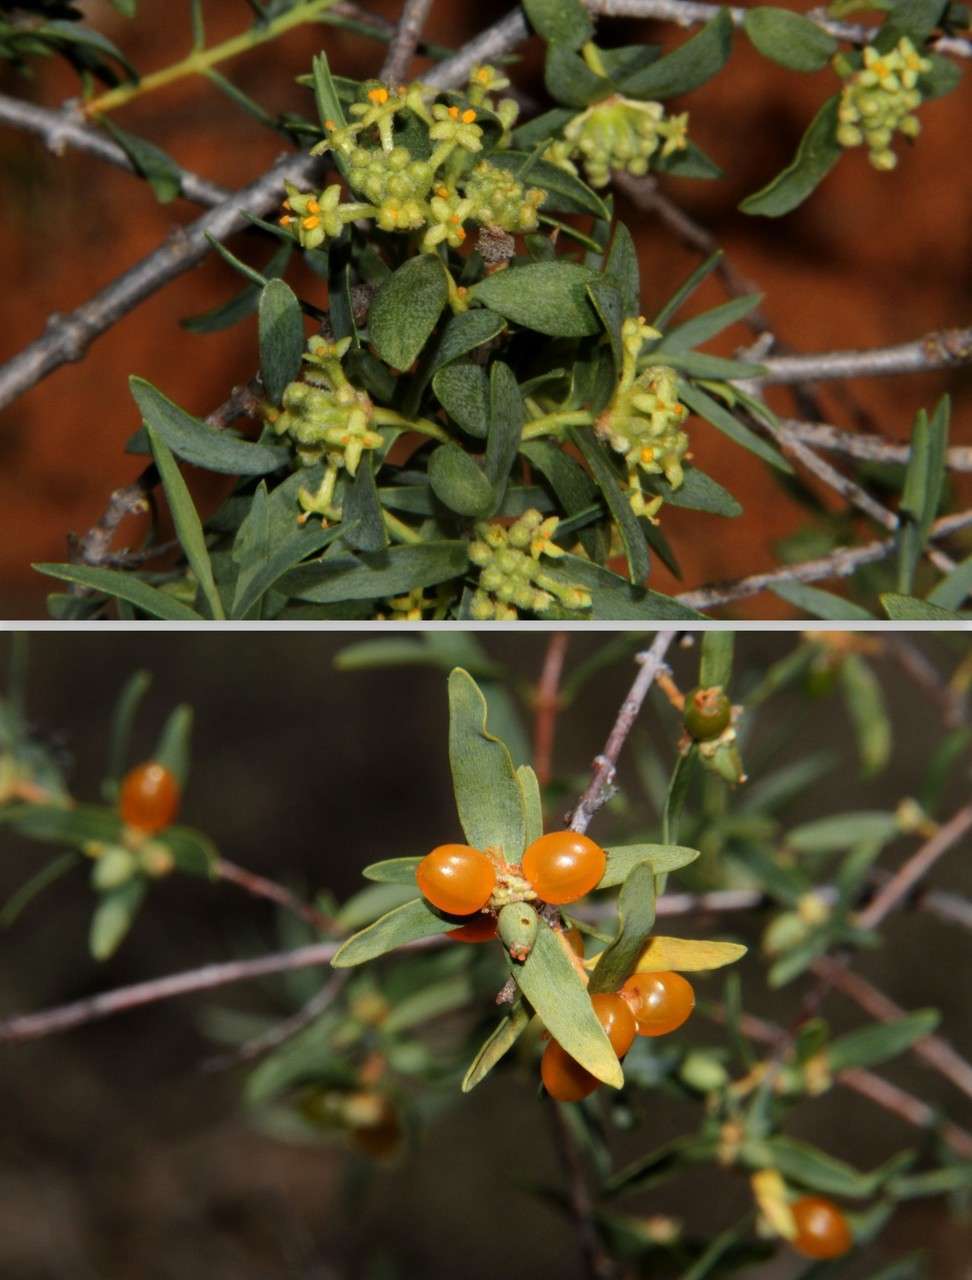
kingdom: Plantae
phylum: Tracheophyta
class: Magnoliopsida
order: Malvales
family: Thymelaeaceae
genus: Pimelea
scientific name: Pimelea microcephala
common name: Mallee riceflower
